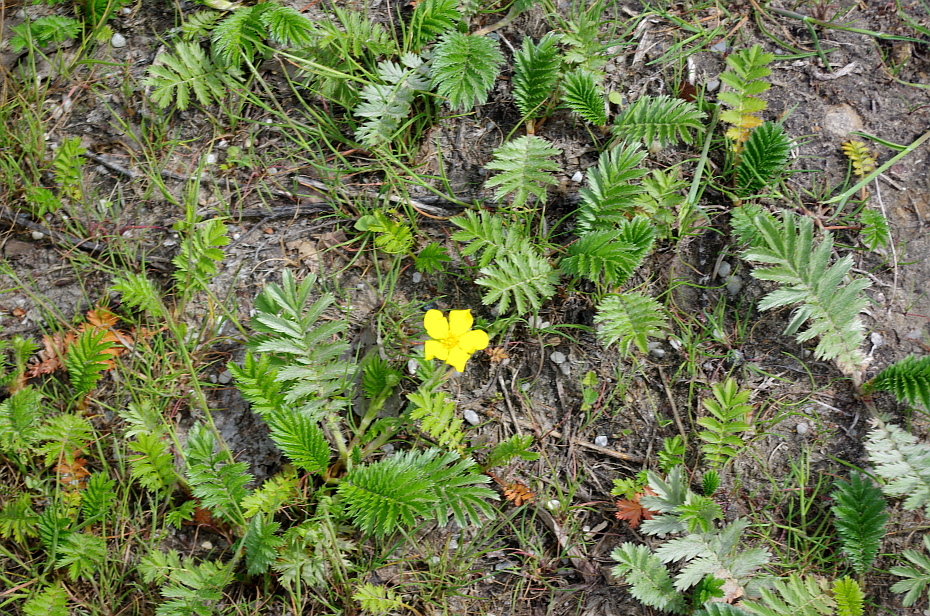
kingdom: Plantae
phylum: Tracheophyta
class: Magnoliopsida
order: Rosales
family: Rosaceae
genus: Argentina
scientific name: Argentina anserina
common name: Common silverweed
